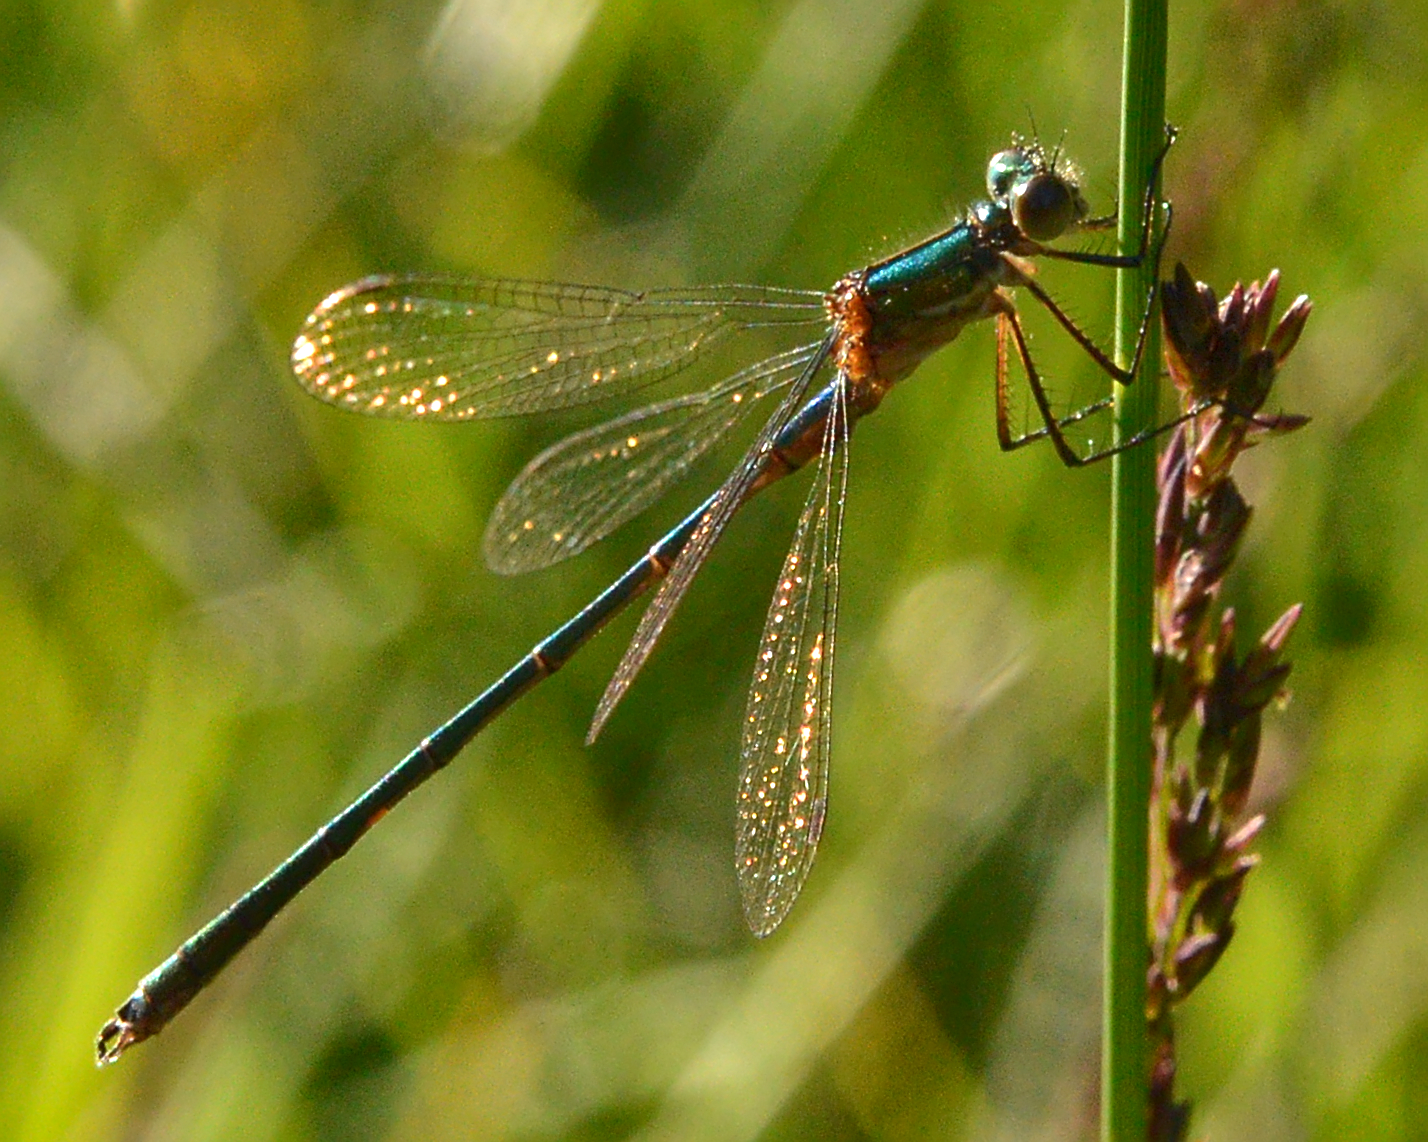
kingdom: Animalia
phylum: Arthropoda
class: Insecta
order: Odonata
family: Lestidae
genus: Lestes
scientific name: Lestes sponsa
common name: Common spreadwing
